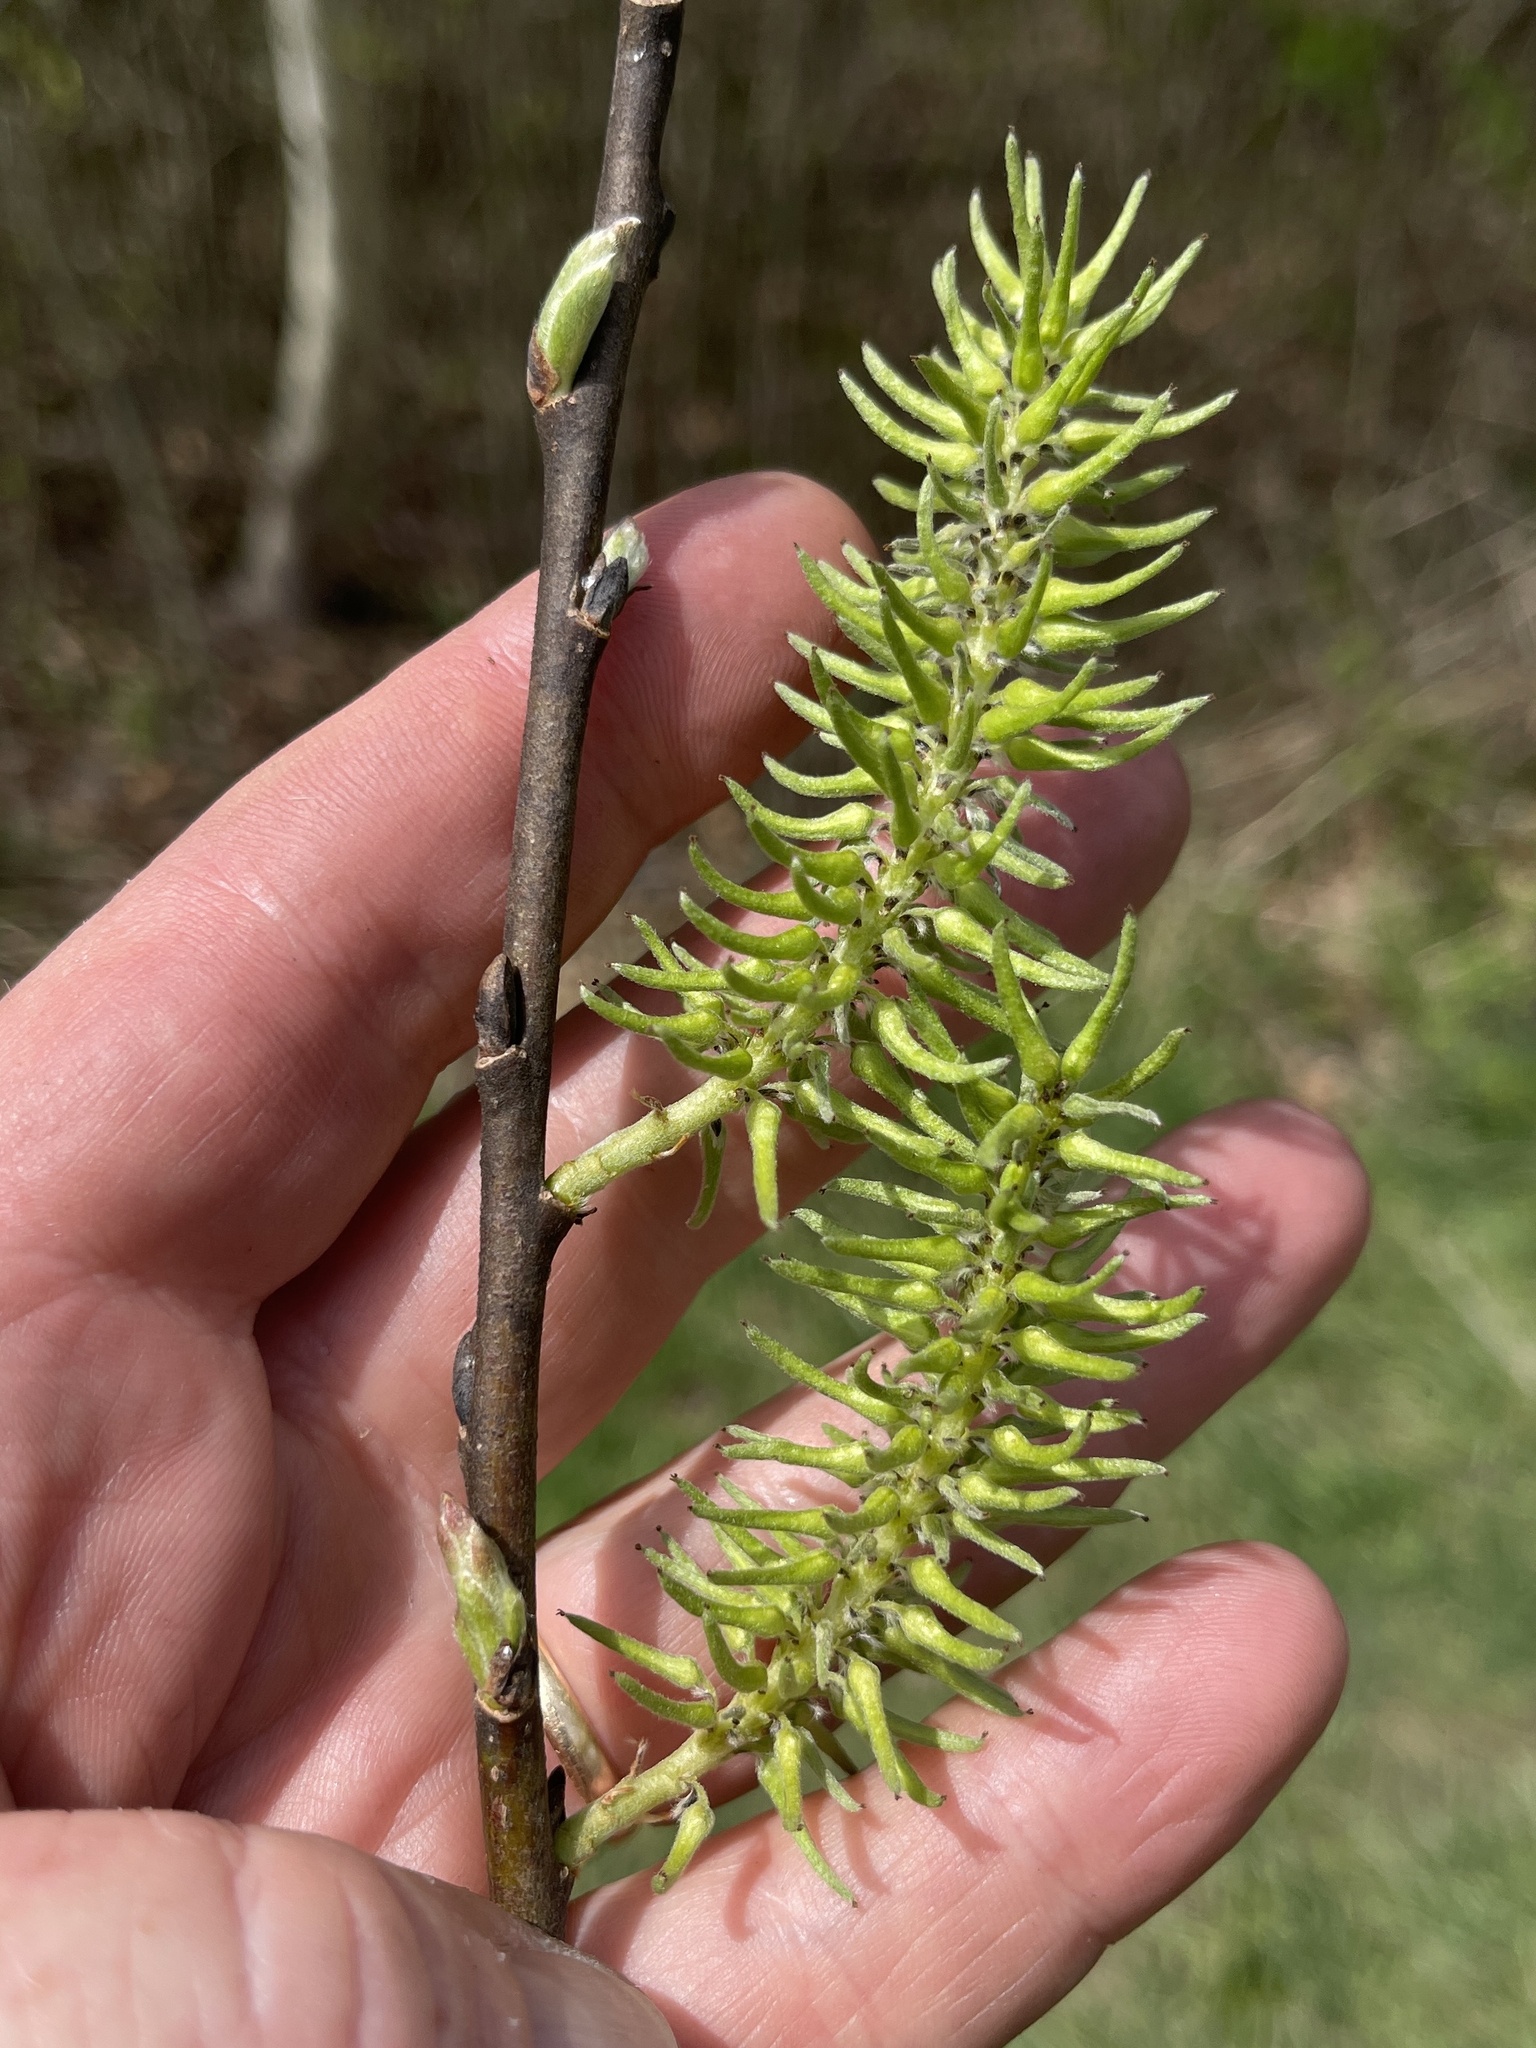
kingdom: Plantae
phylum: Tracheophyta
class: Magnoliopsida
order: Malpighiales
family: Salicaceae
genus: Salix
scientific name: Salix discolor
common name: Glaucous willow
